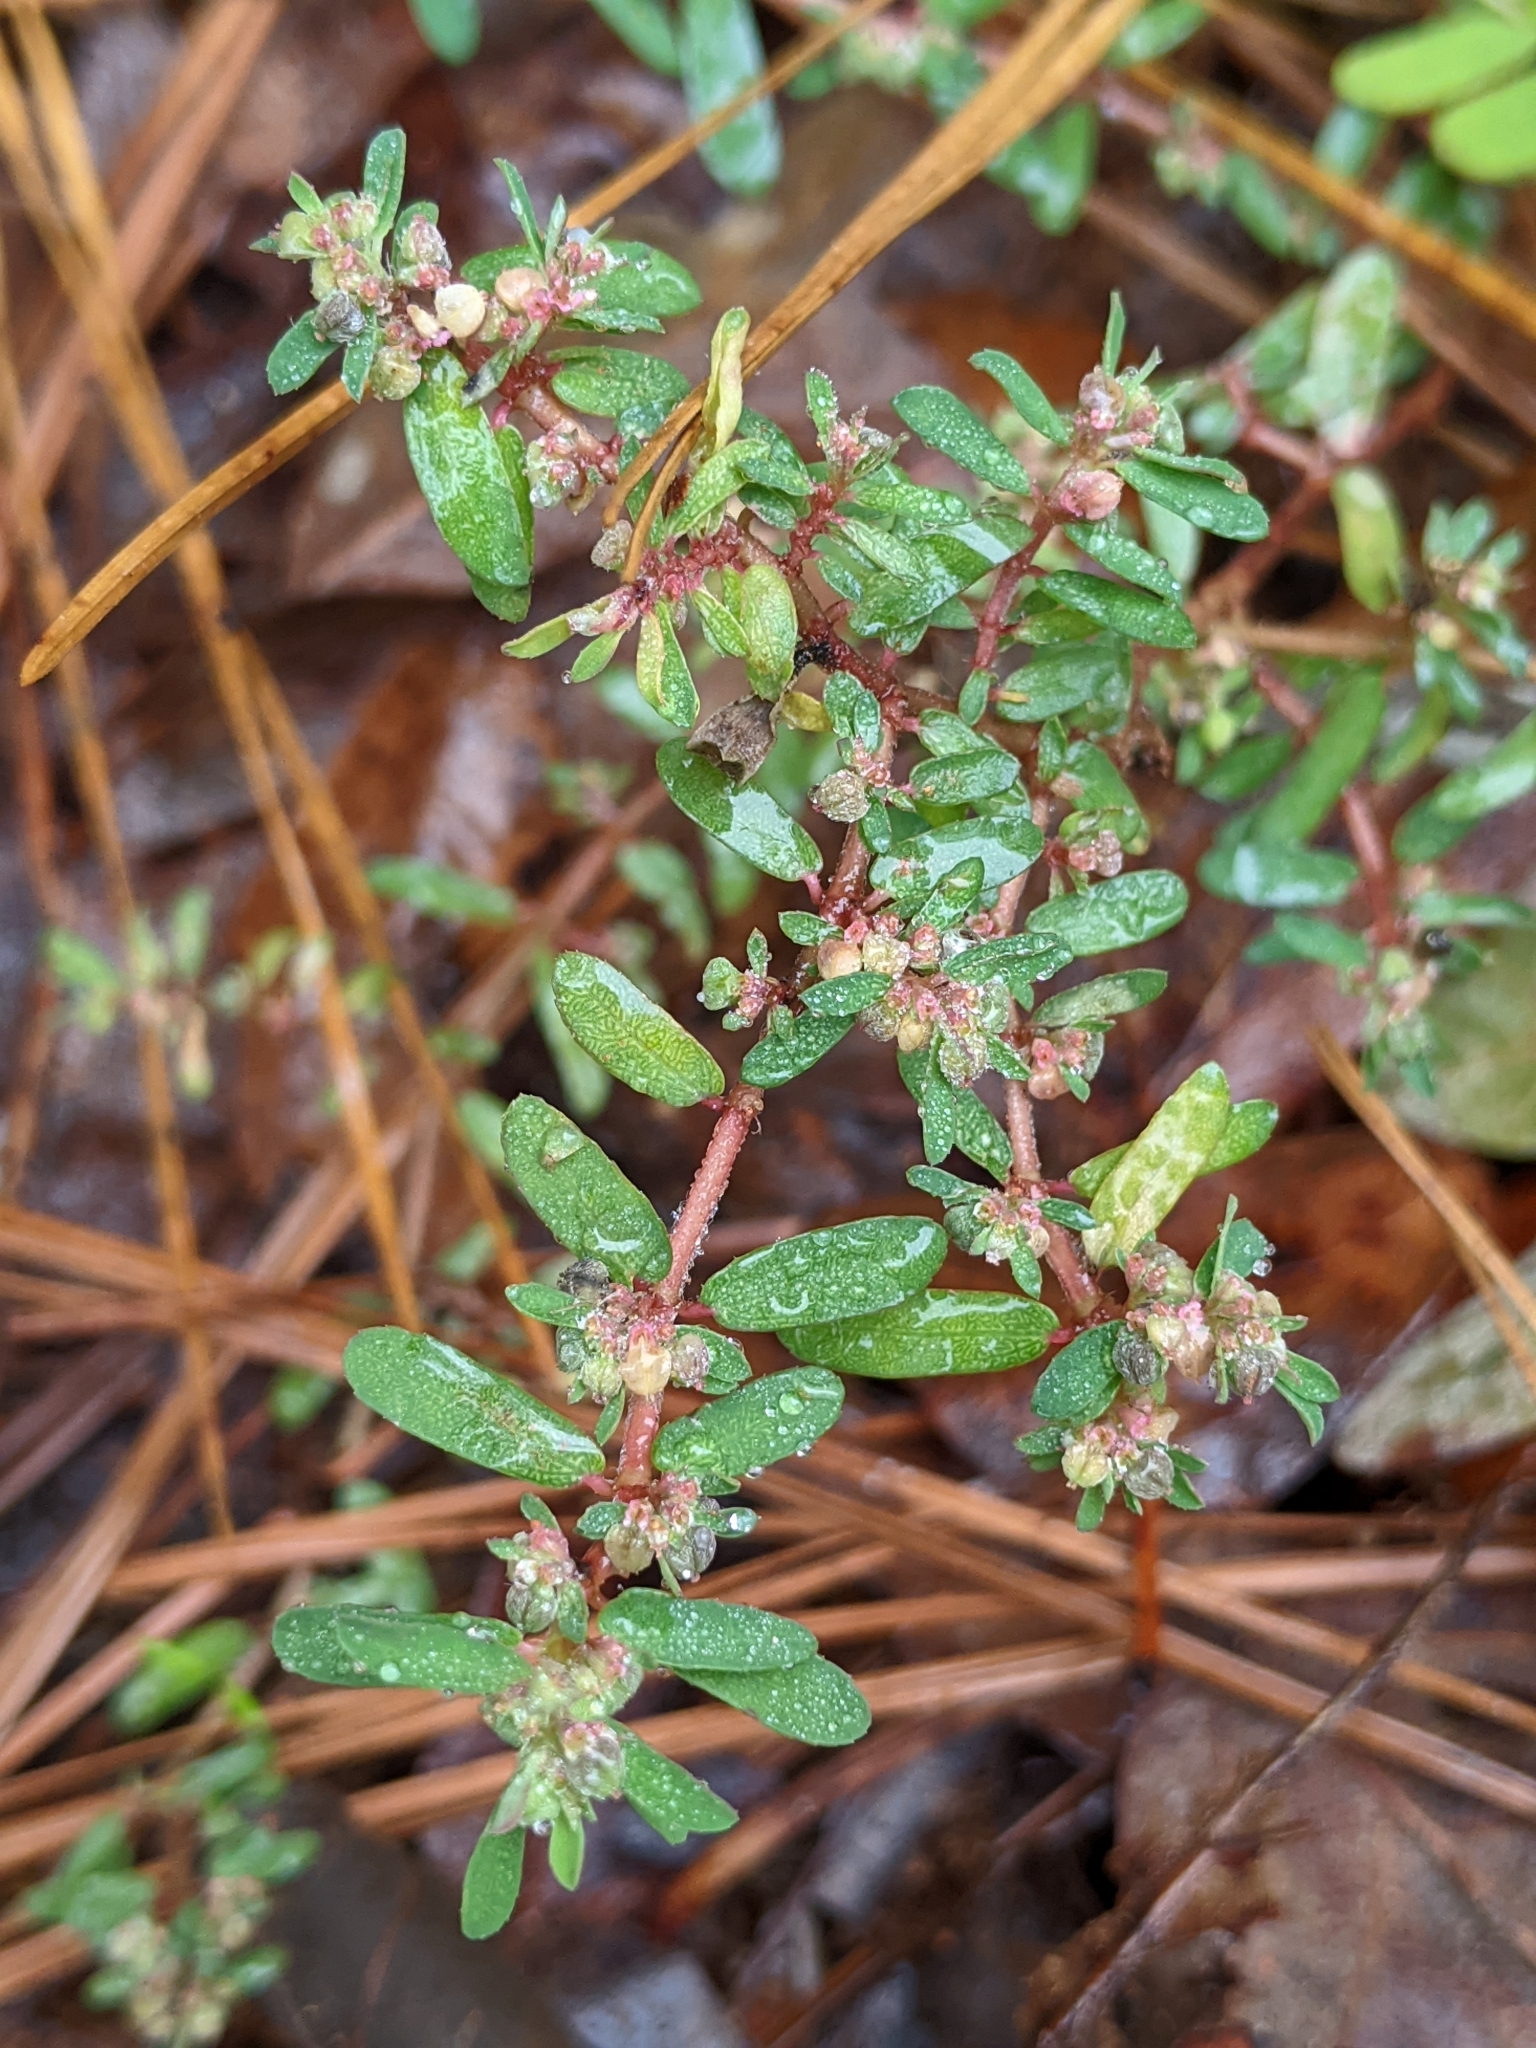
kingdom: Plantae
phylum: Tracheophyta
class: Magnoliopsida
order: Malpighiales
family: Euphorbiaceae
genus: Euphorbia
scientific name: Euphorbia maculata
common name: Spotted spurge
